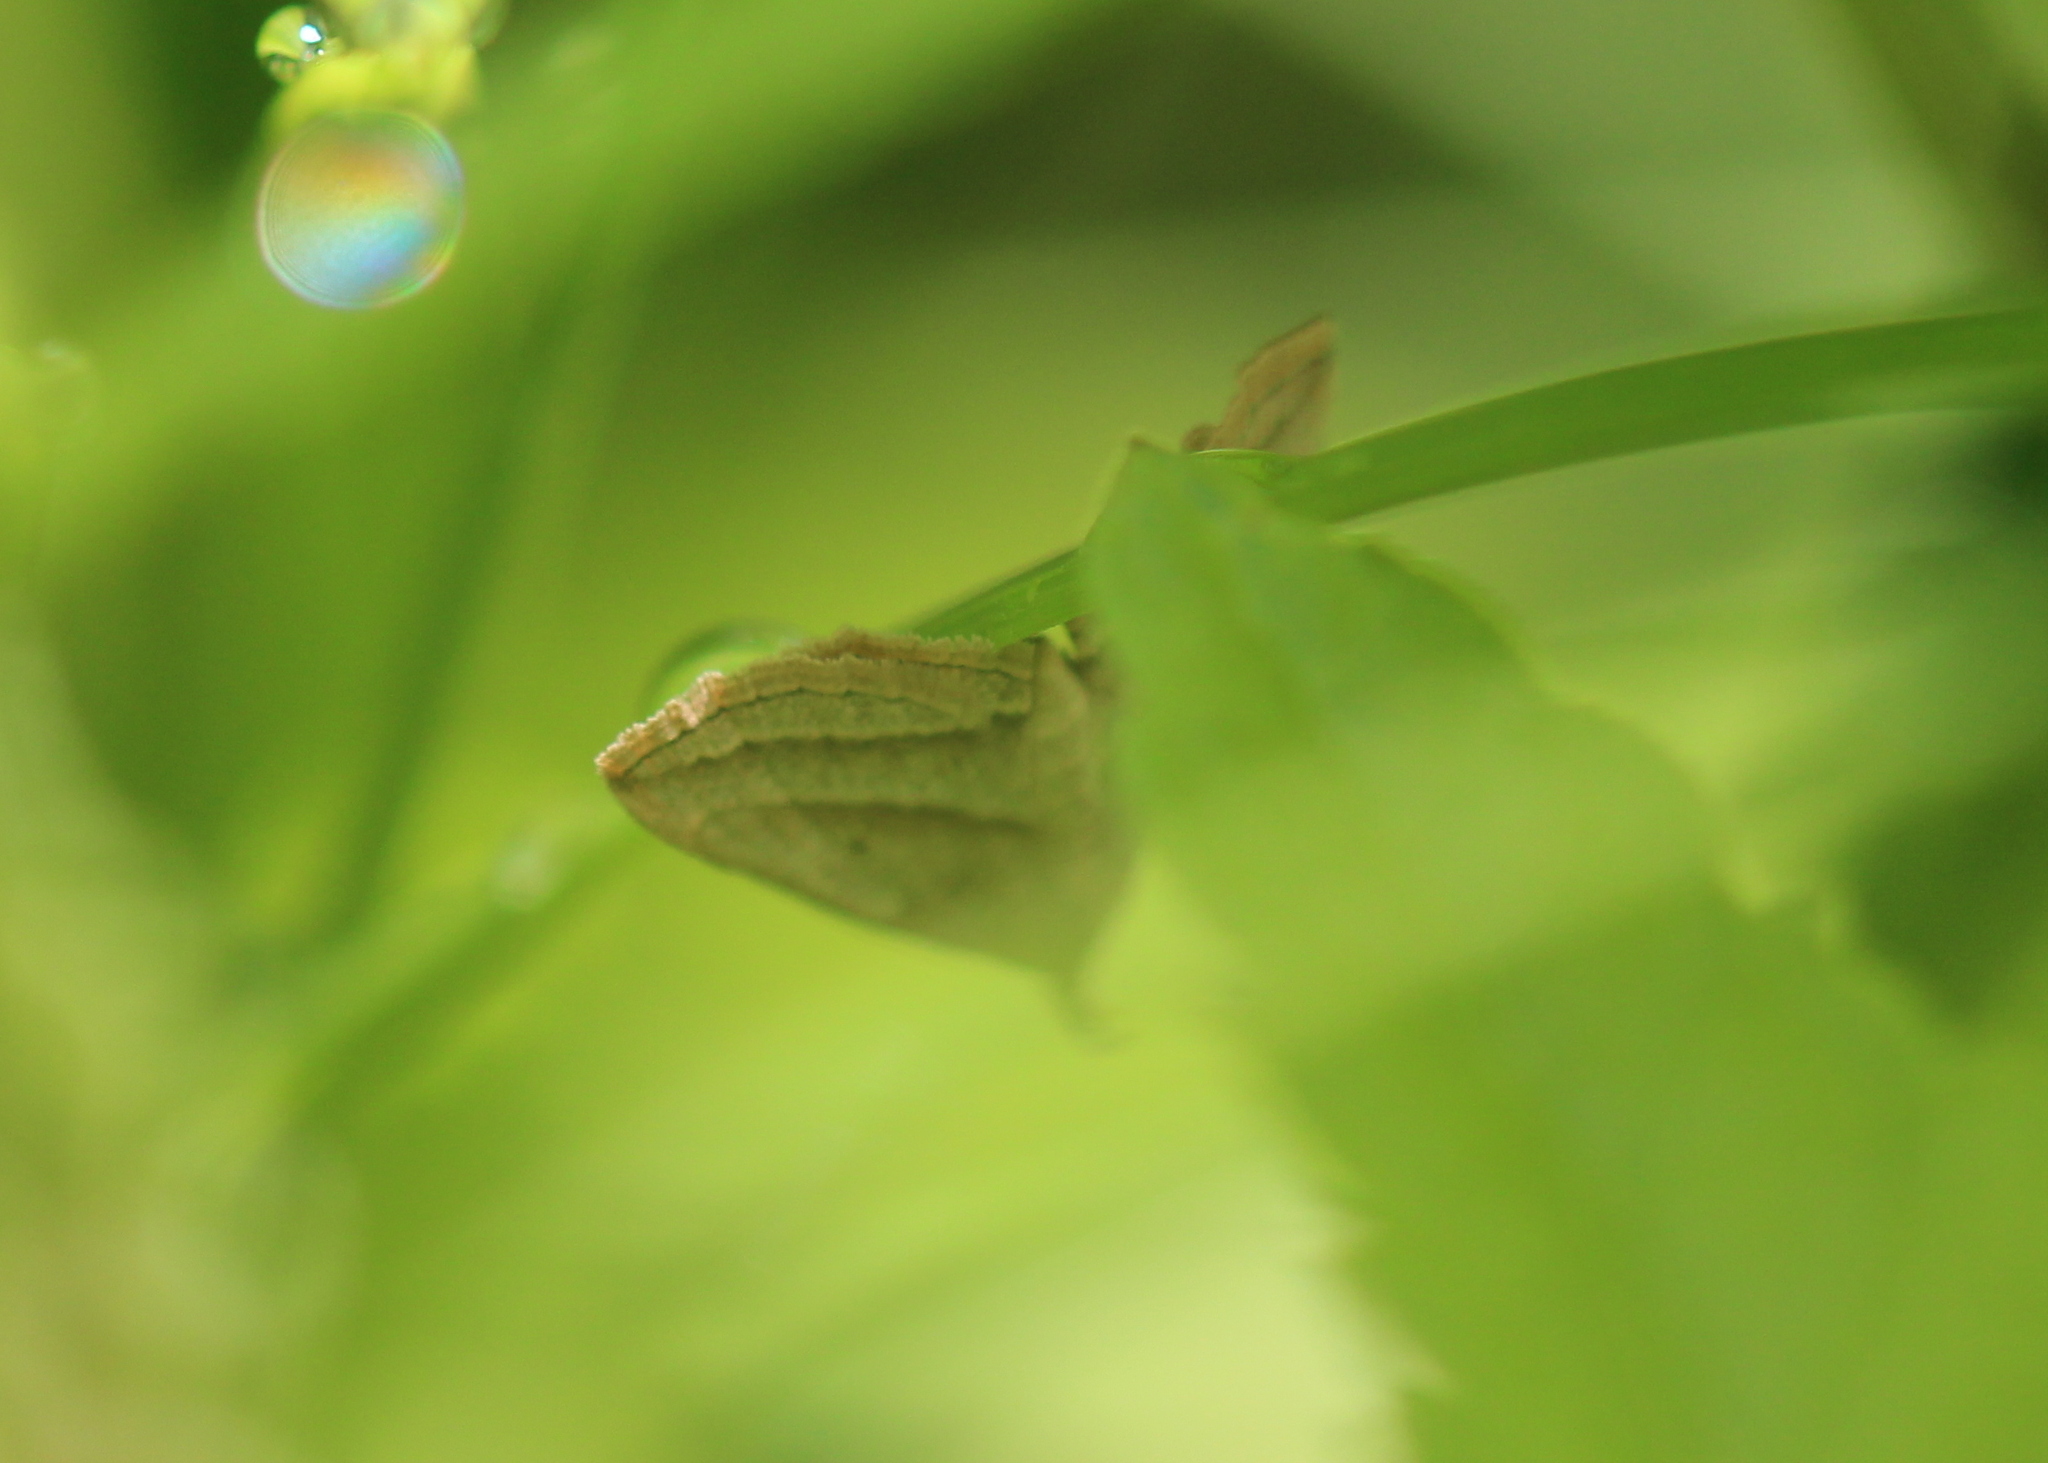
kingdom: Animalia
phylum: Arthropoda
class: Insecta
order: Lepidoptera
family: Erebidae
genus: Macrochilo
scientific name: Macrochilo absorptalis
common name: Slant-lined owlet
